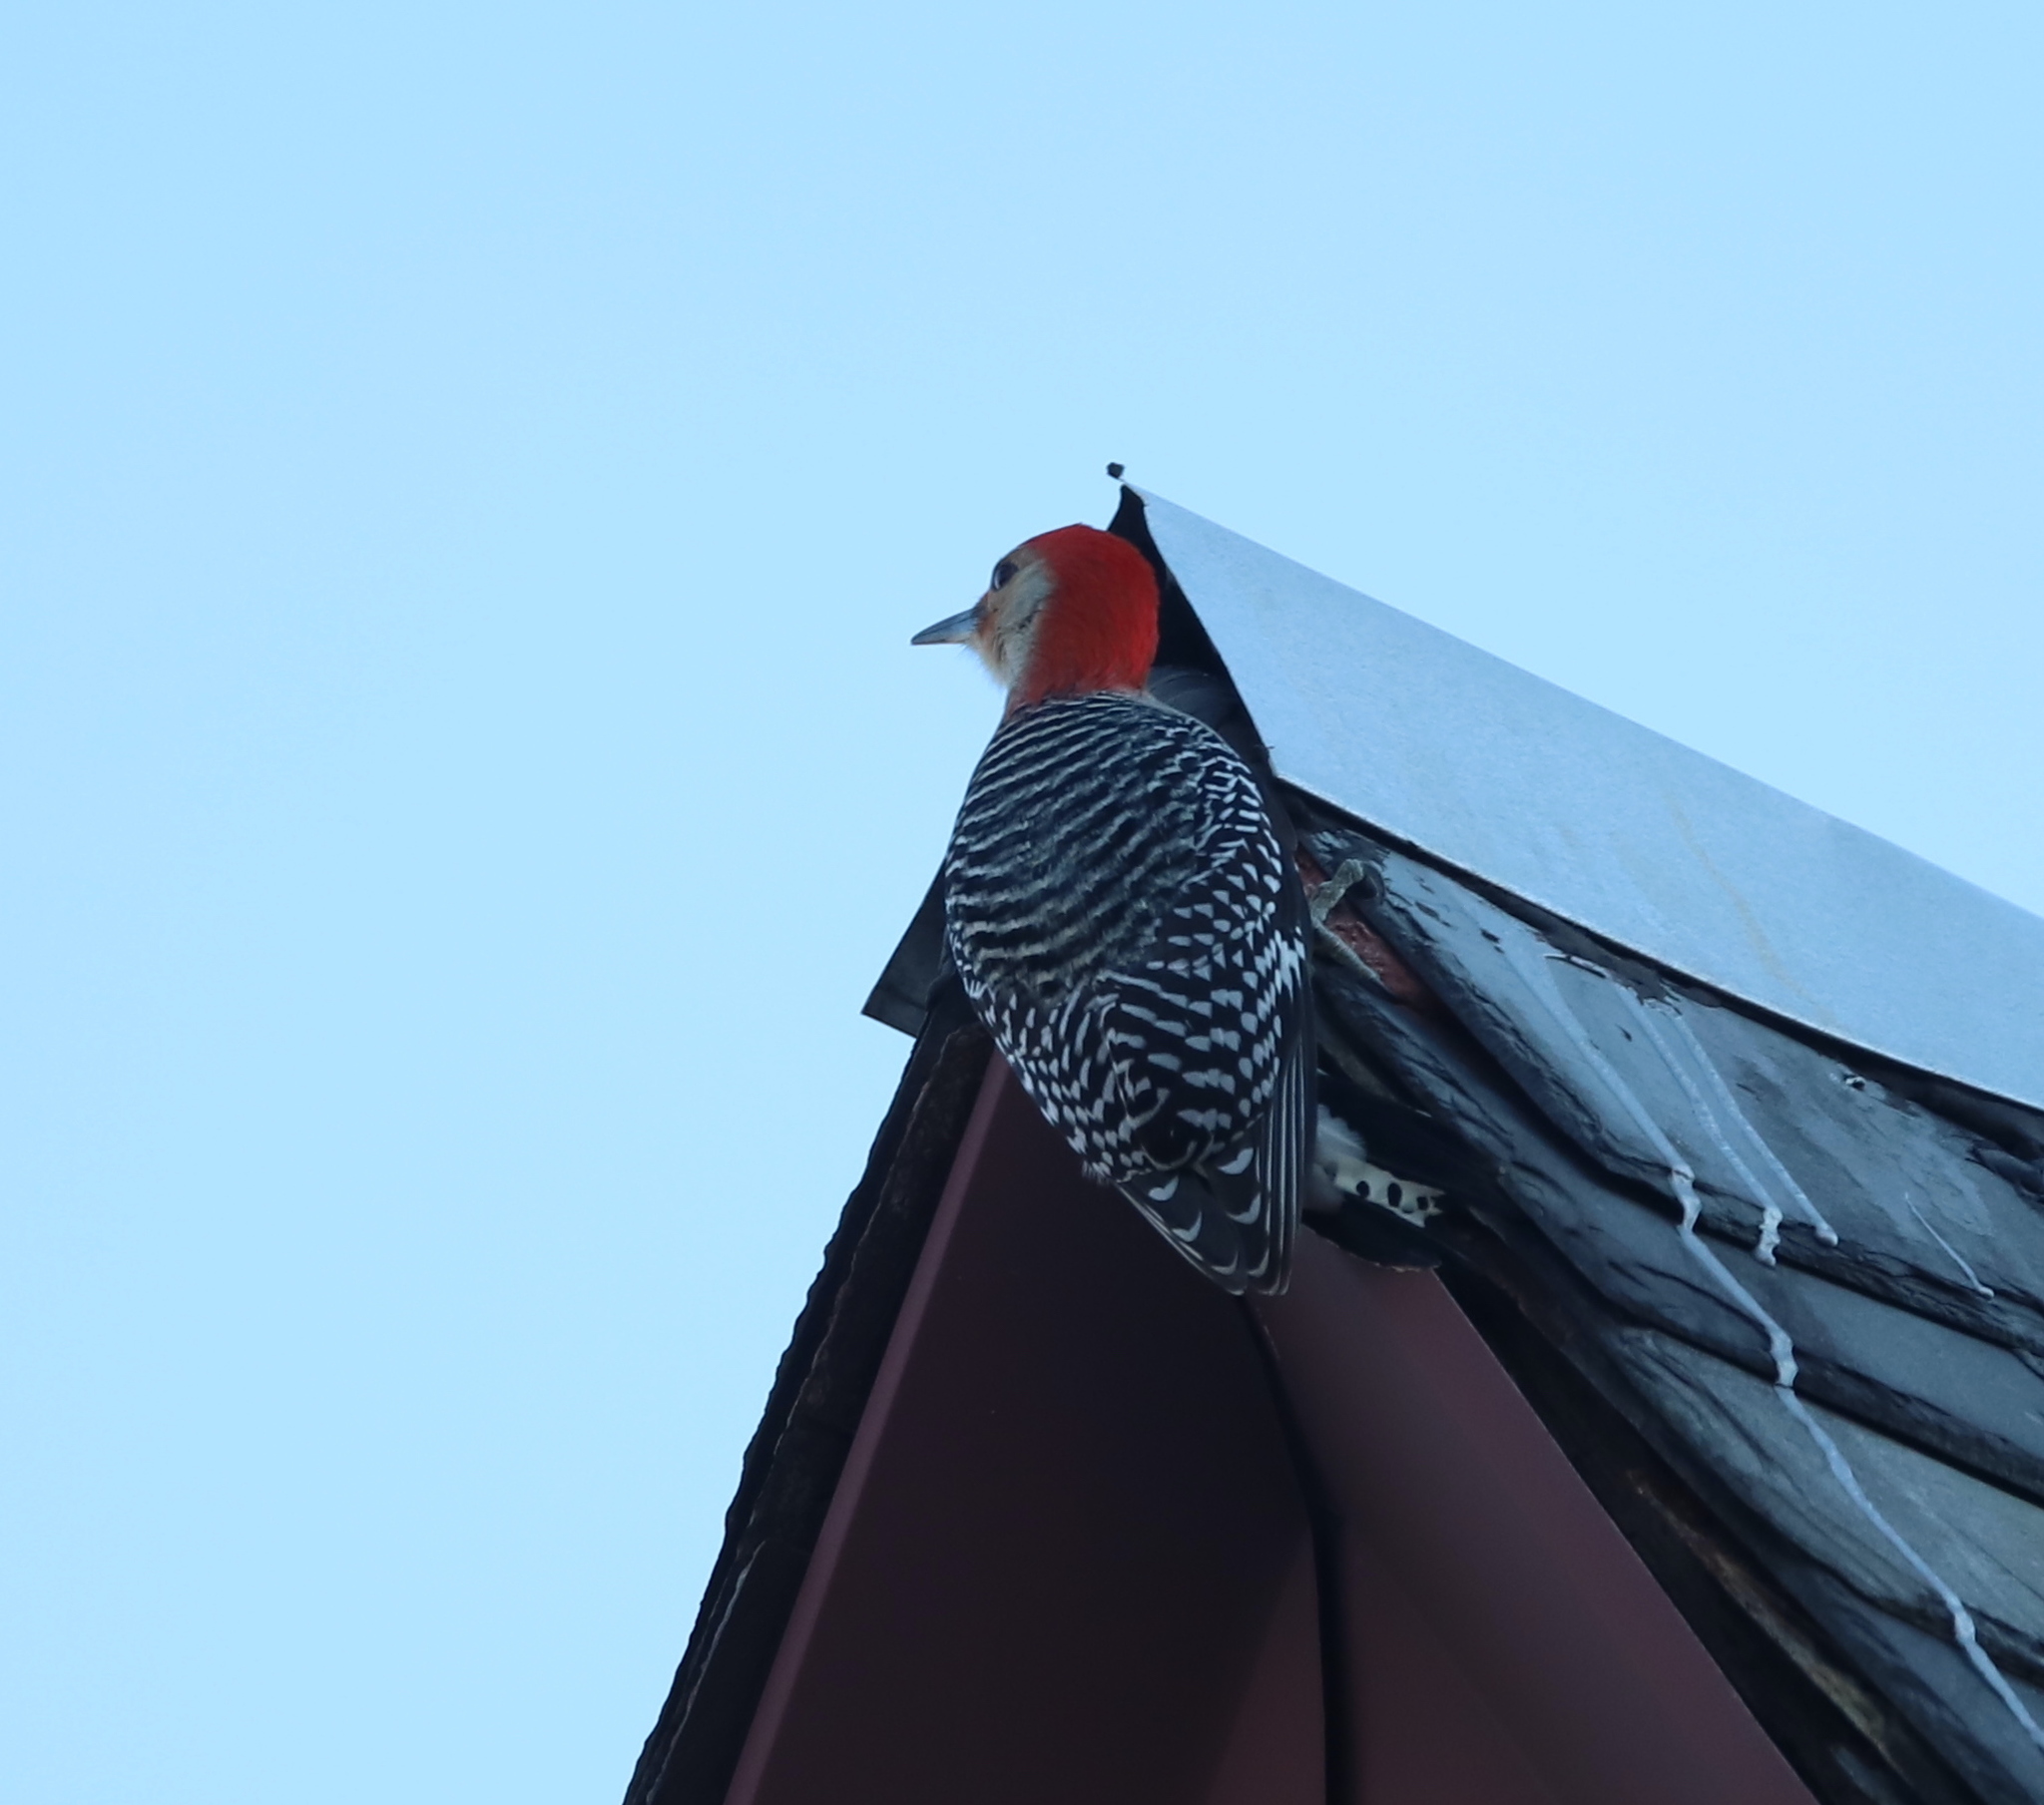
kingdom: Animalia
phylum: Chordata
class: Aves
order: Piciformes
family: Picidae
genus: Melanerpes
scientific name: Melanerpes carolinus
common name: Red-bellied woodpecker
